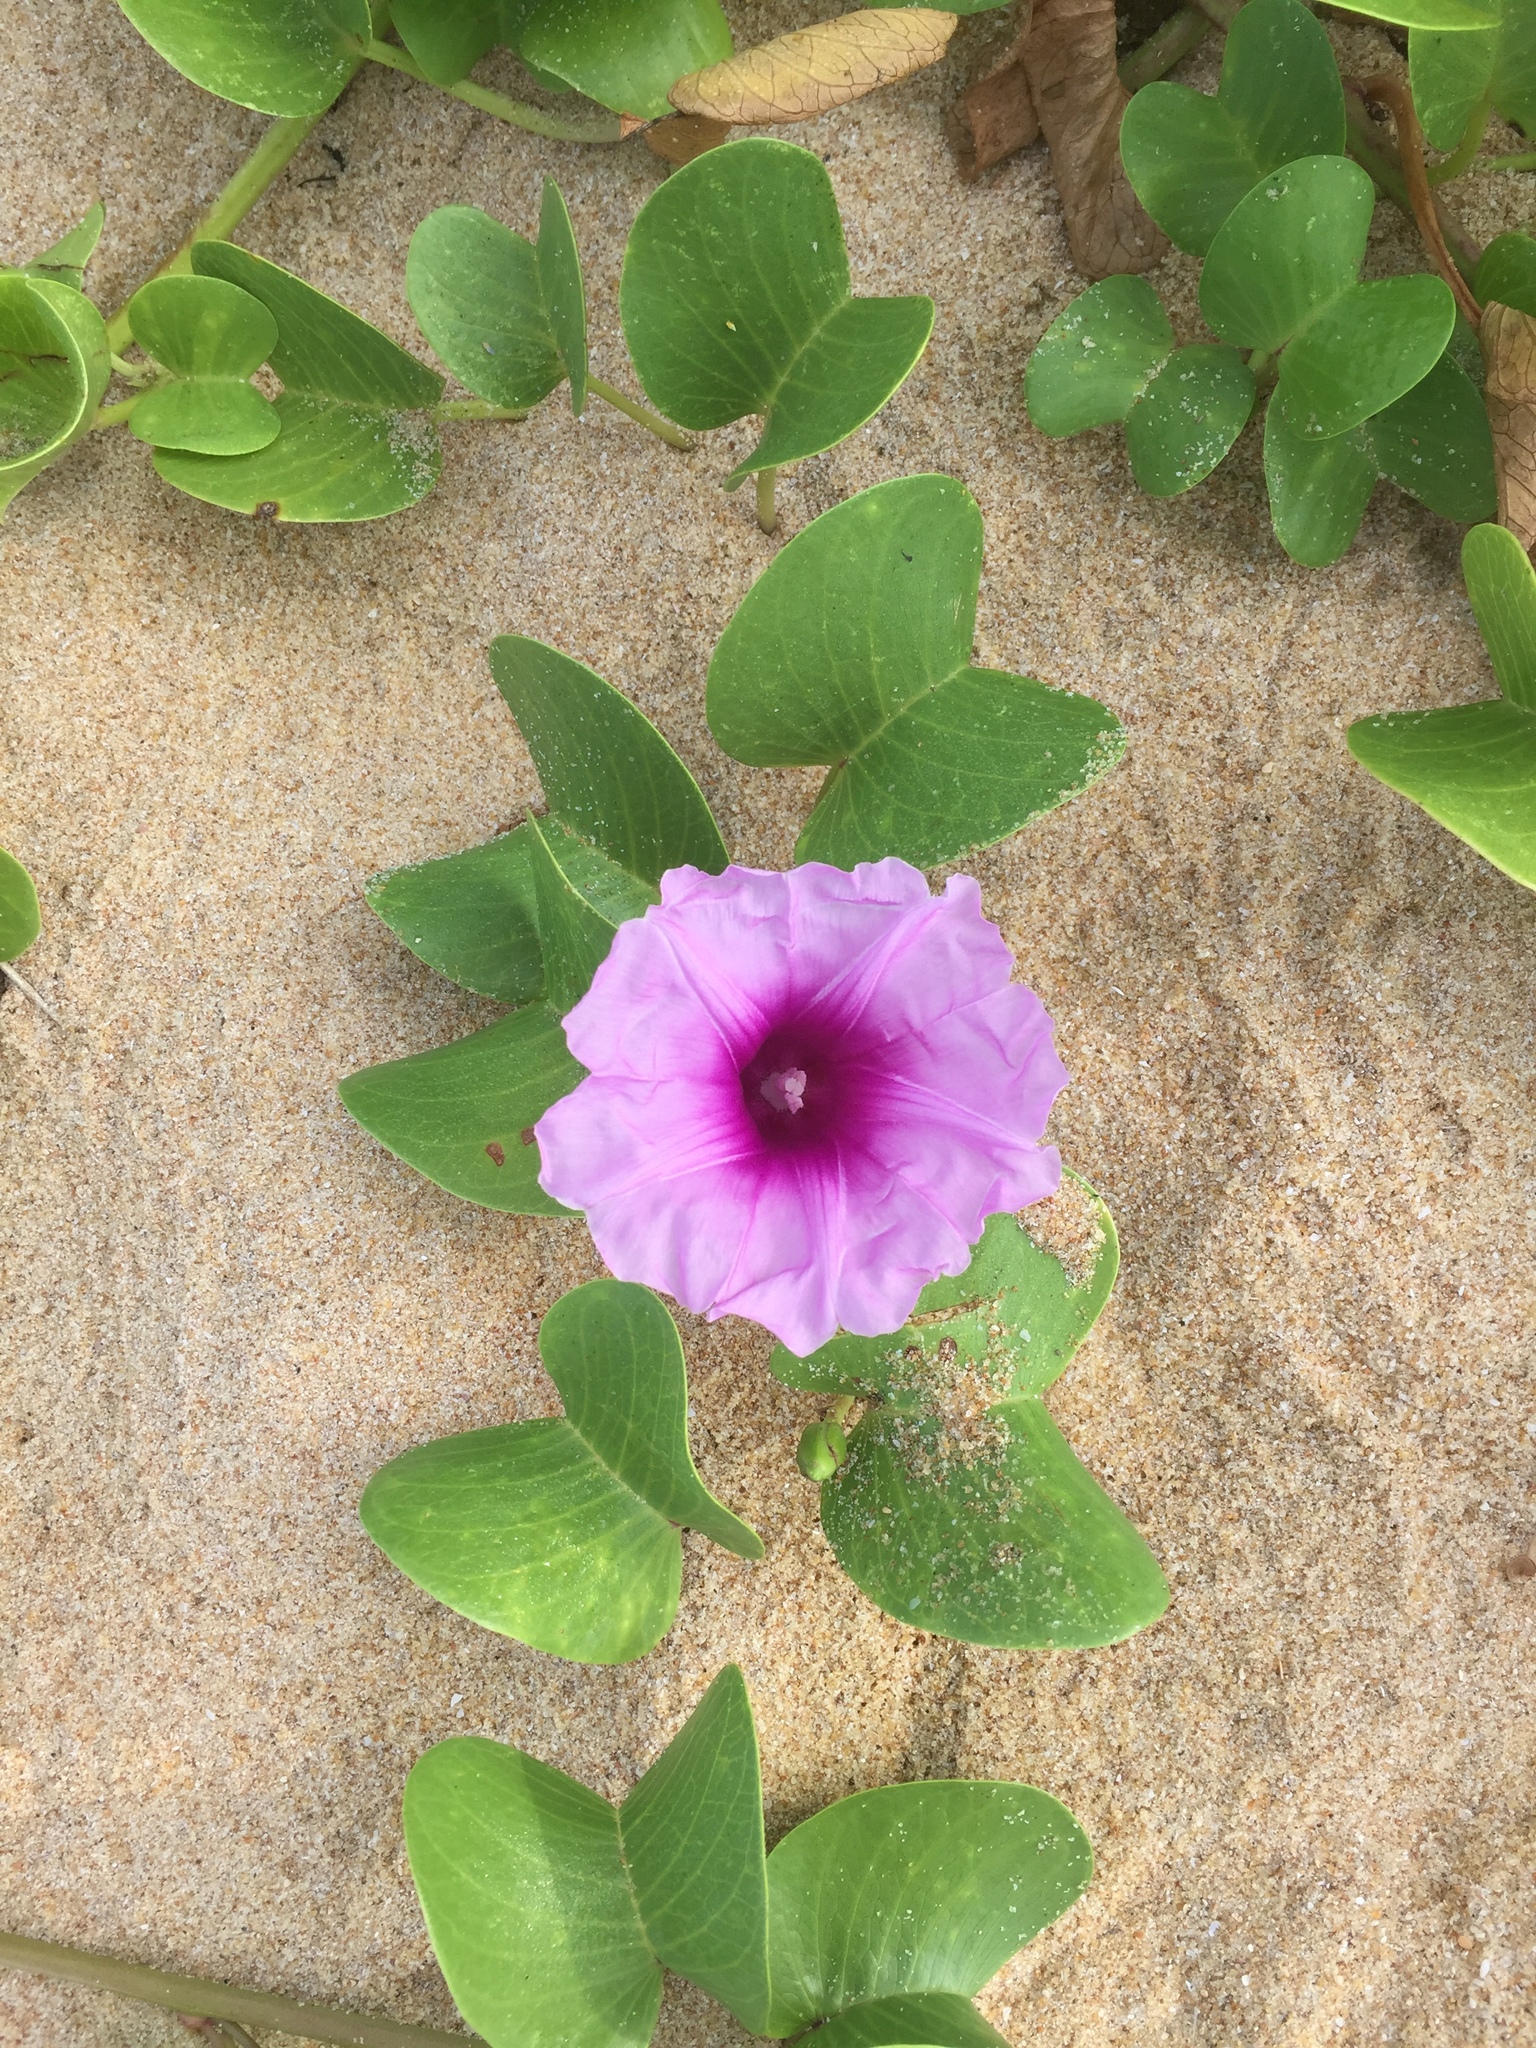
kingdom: Plantae
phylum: Tracheophyta
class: Magnoliopsida
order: Solanales
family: Convolvulaceae
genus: Ipomoea
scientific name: Ipomoea pes-caprae
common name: Beach morning glory
